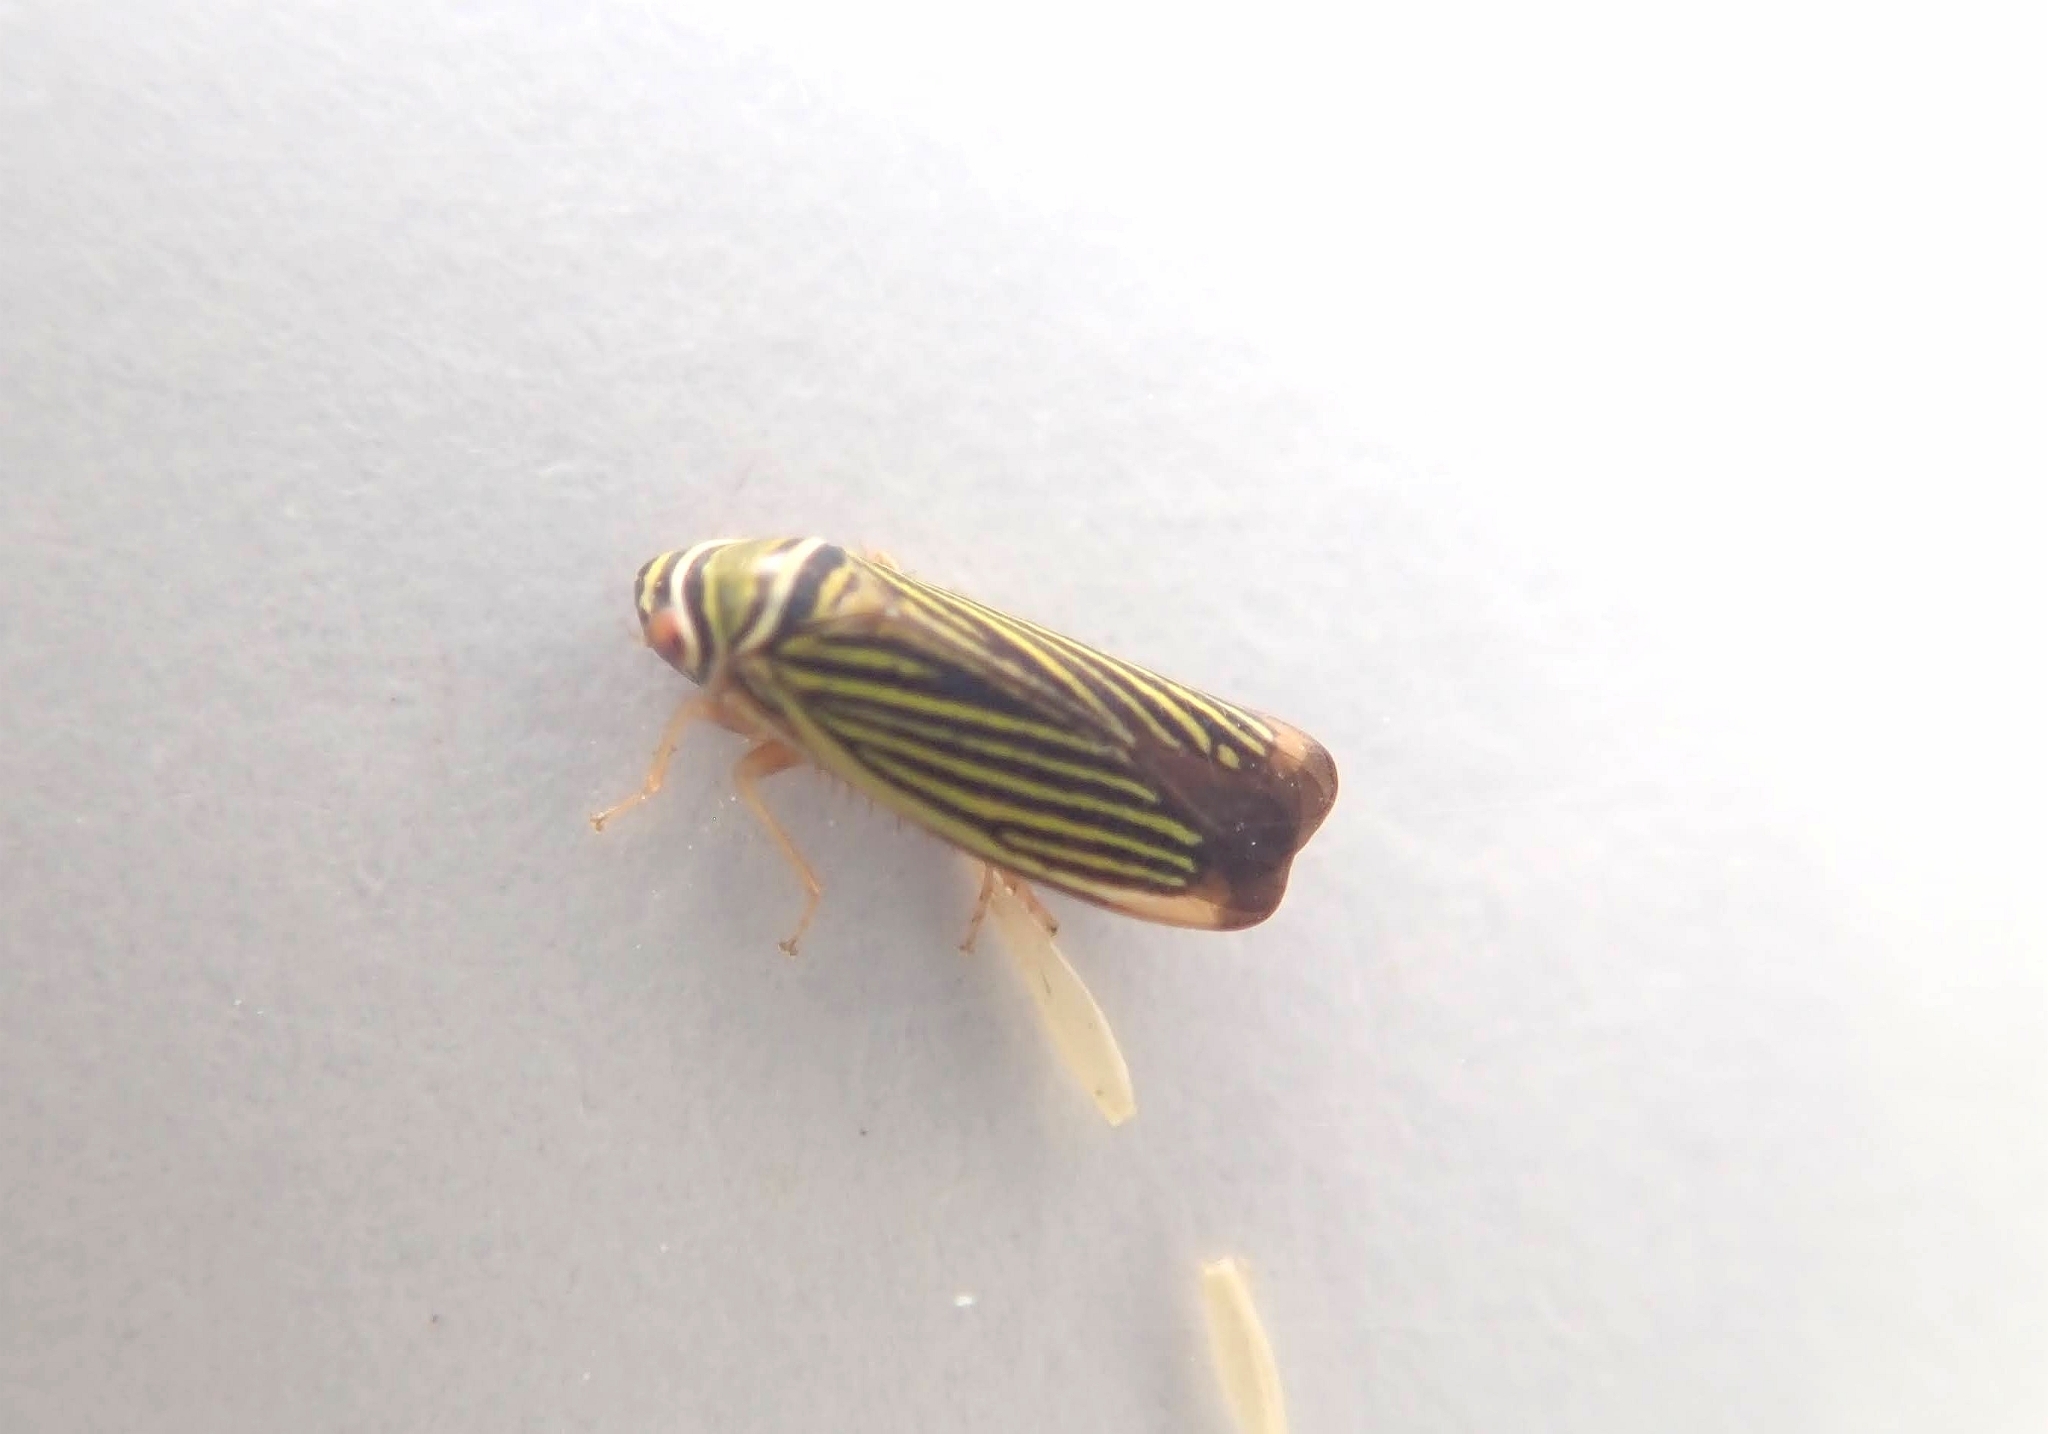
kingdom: Animalia
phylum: Arthropoda
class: Insecta
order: Hemiptera
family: Cicadellidae
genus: Tylozygus
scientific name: Tylozygus bifidus
